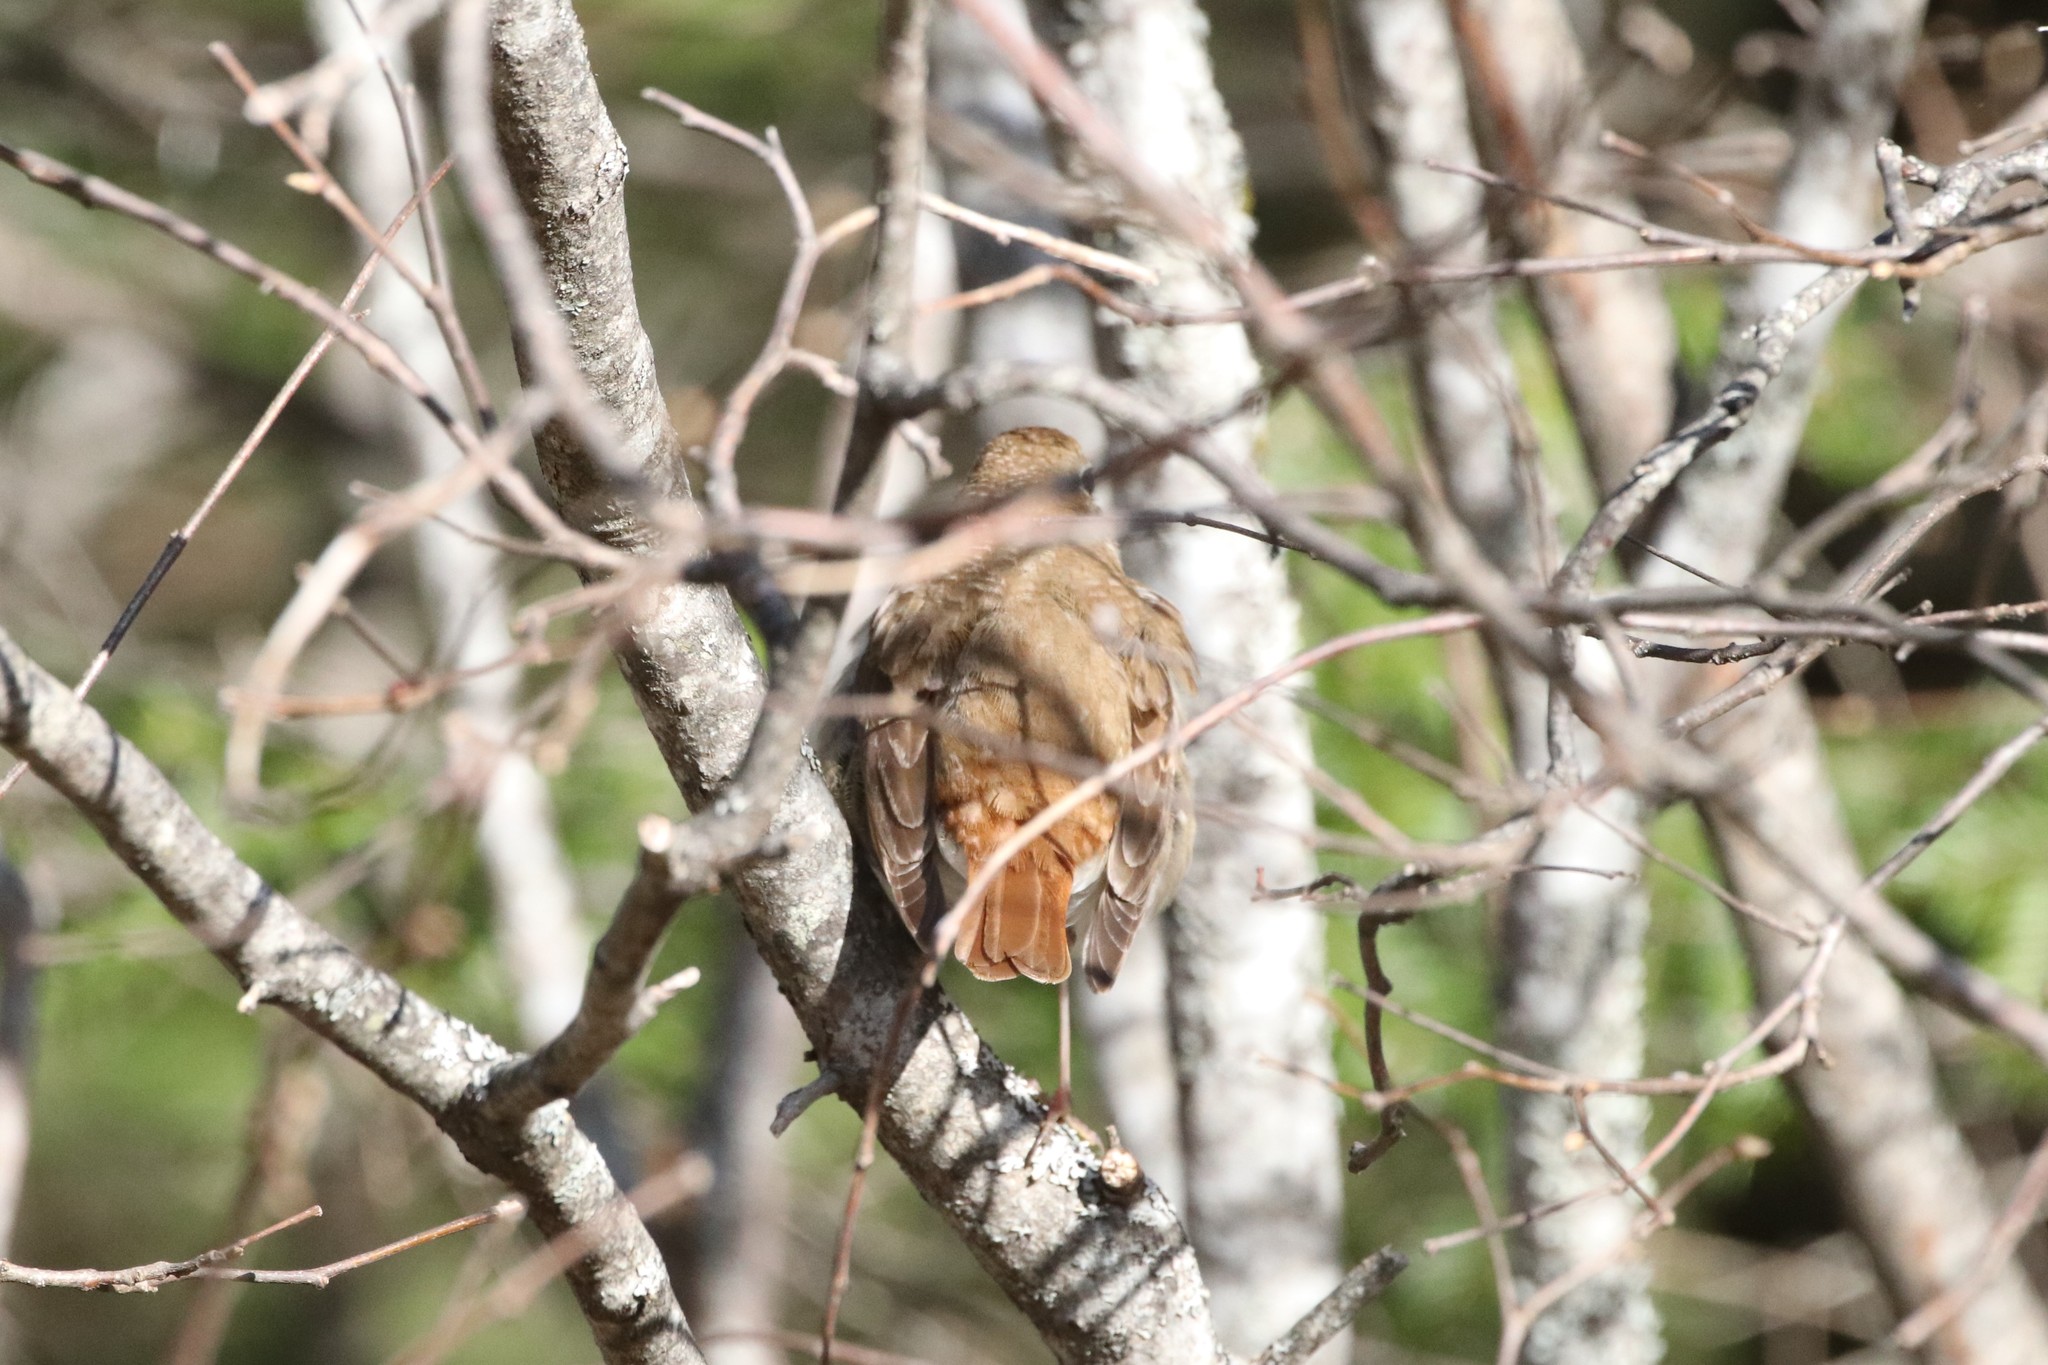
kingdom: Animalia
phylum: Chordata
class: Aves
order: Passeriformes
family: Turdidae
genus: Catharus
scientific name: Catharus guttatus
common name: Hermit thrush
